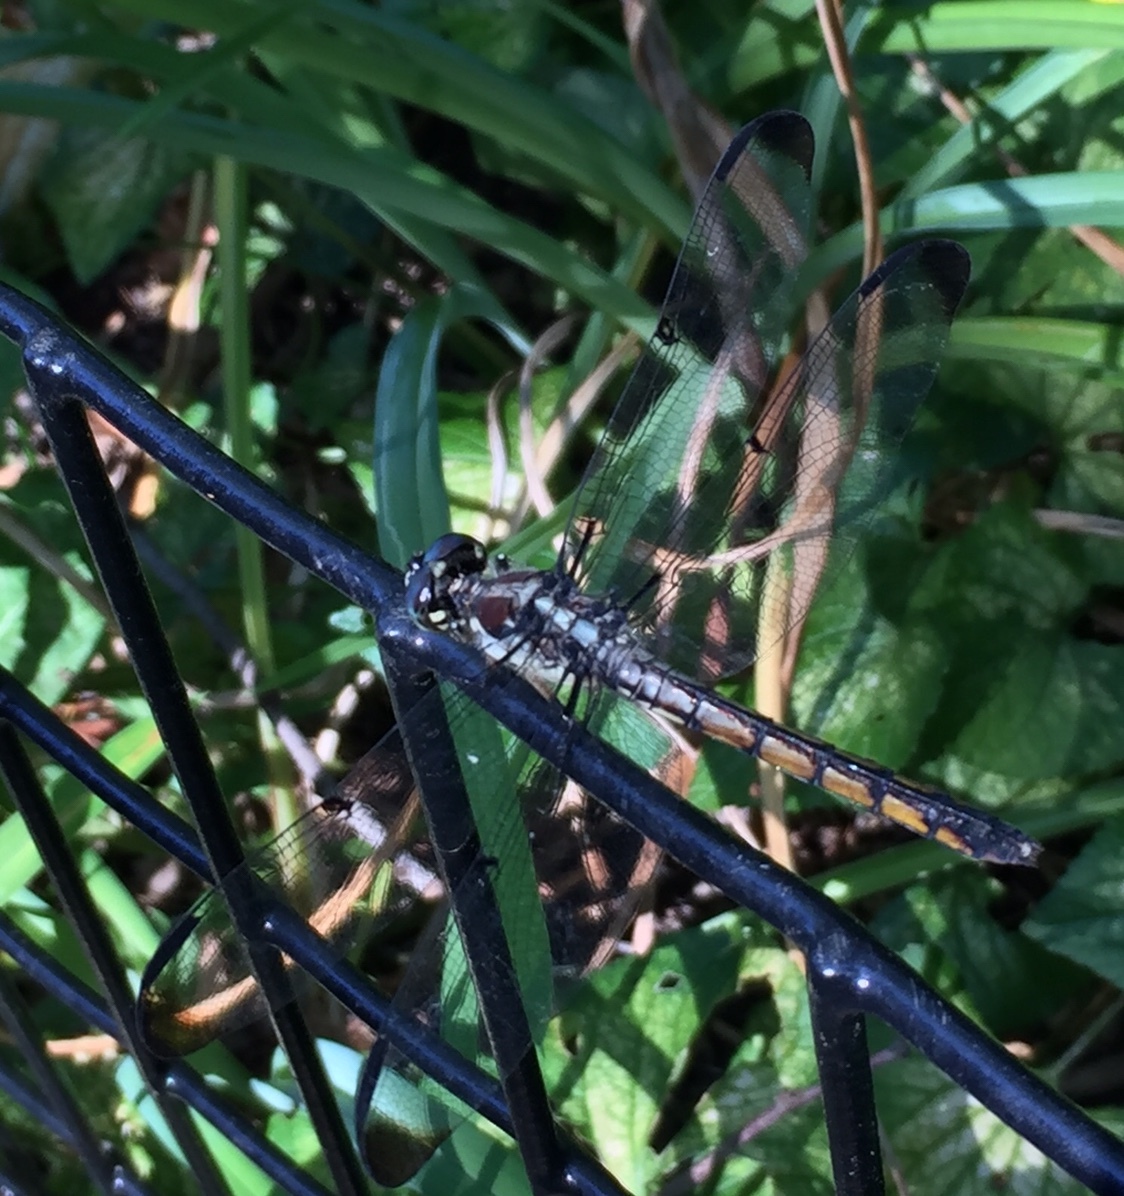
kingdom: Animalia
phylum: Arthropoda
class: Insecta
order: Odonata
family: Libellulidae
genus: Libellula
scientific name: Libellula vibrans
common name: Great blue skimmer
